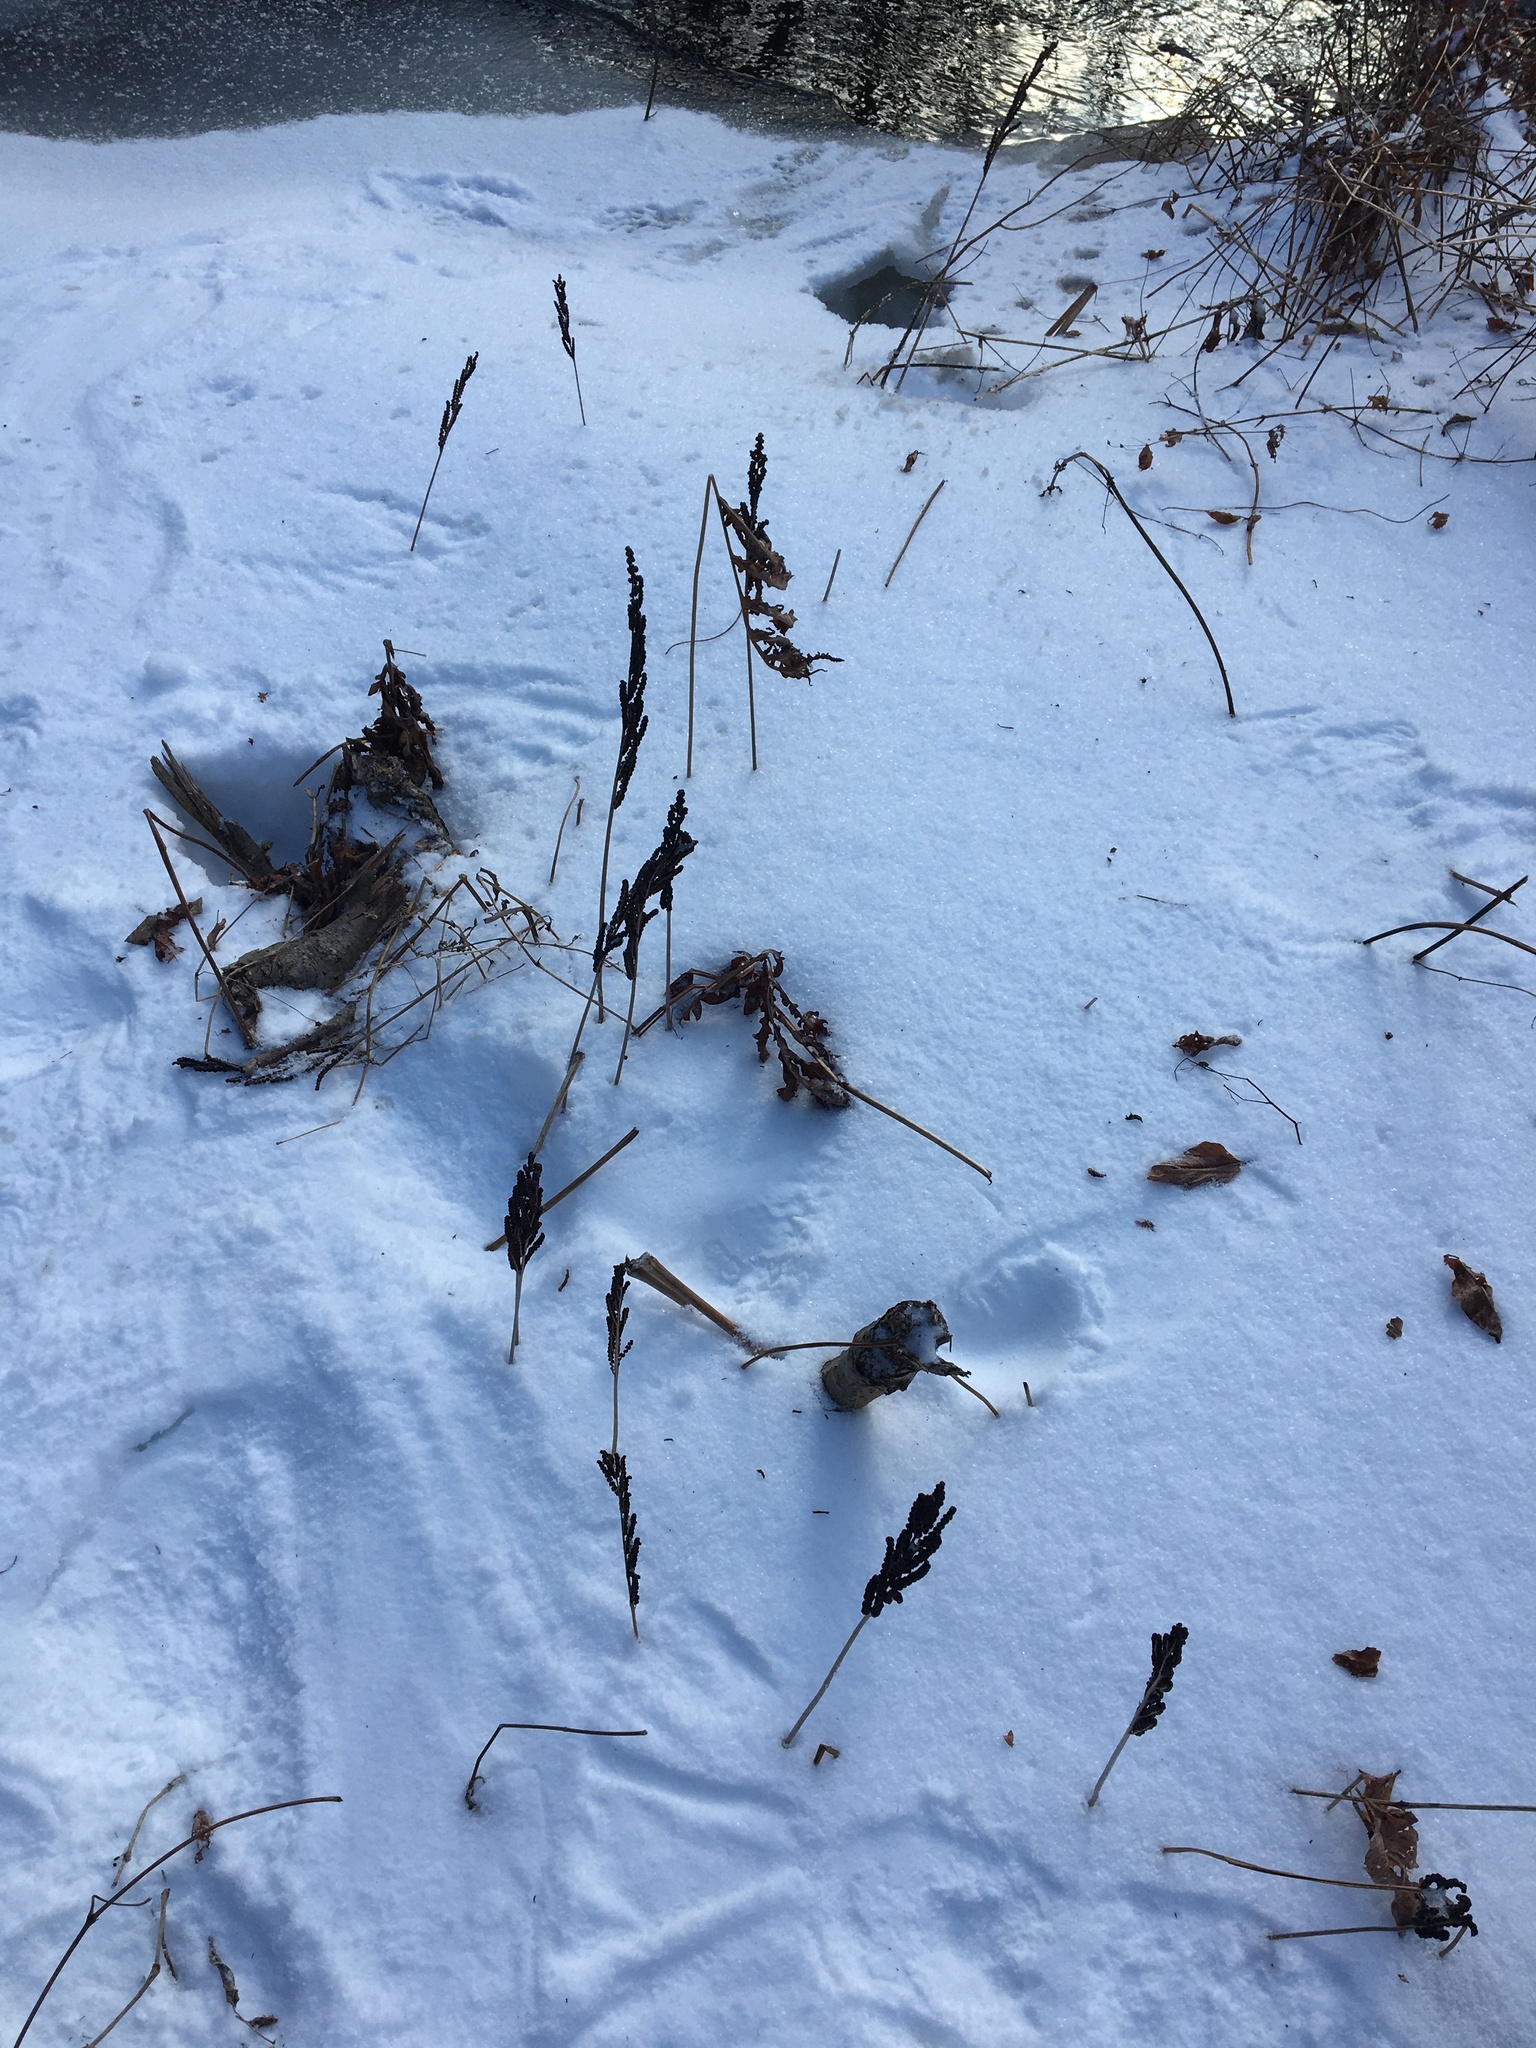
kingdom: Plantae
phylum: Tracheophyta
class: Polypodiopsida
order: Polypodiales
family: Onocleaceae
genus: Onoclea
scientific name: Onoclea sensibilis
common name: Sensitive fern
